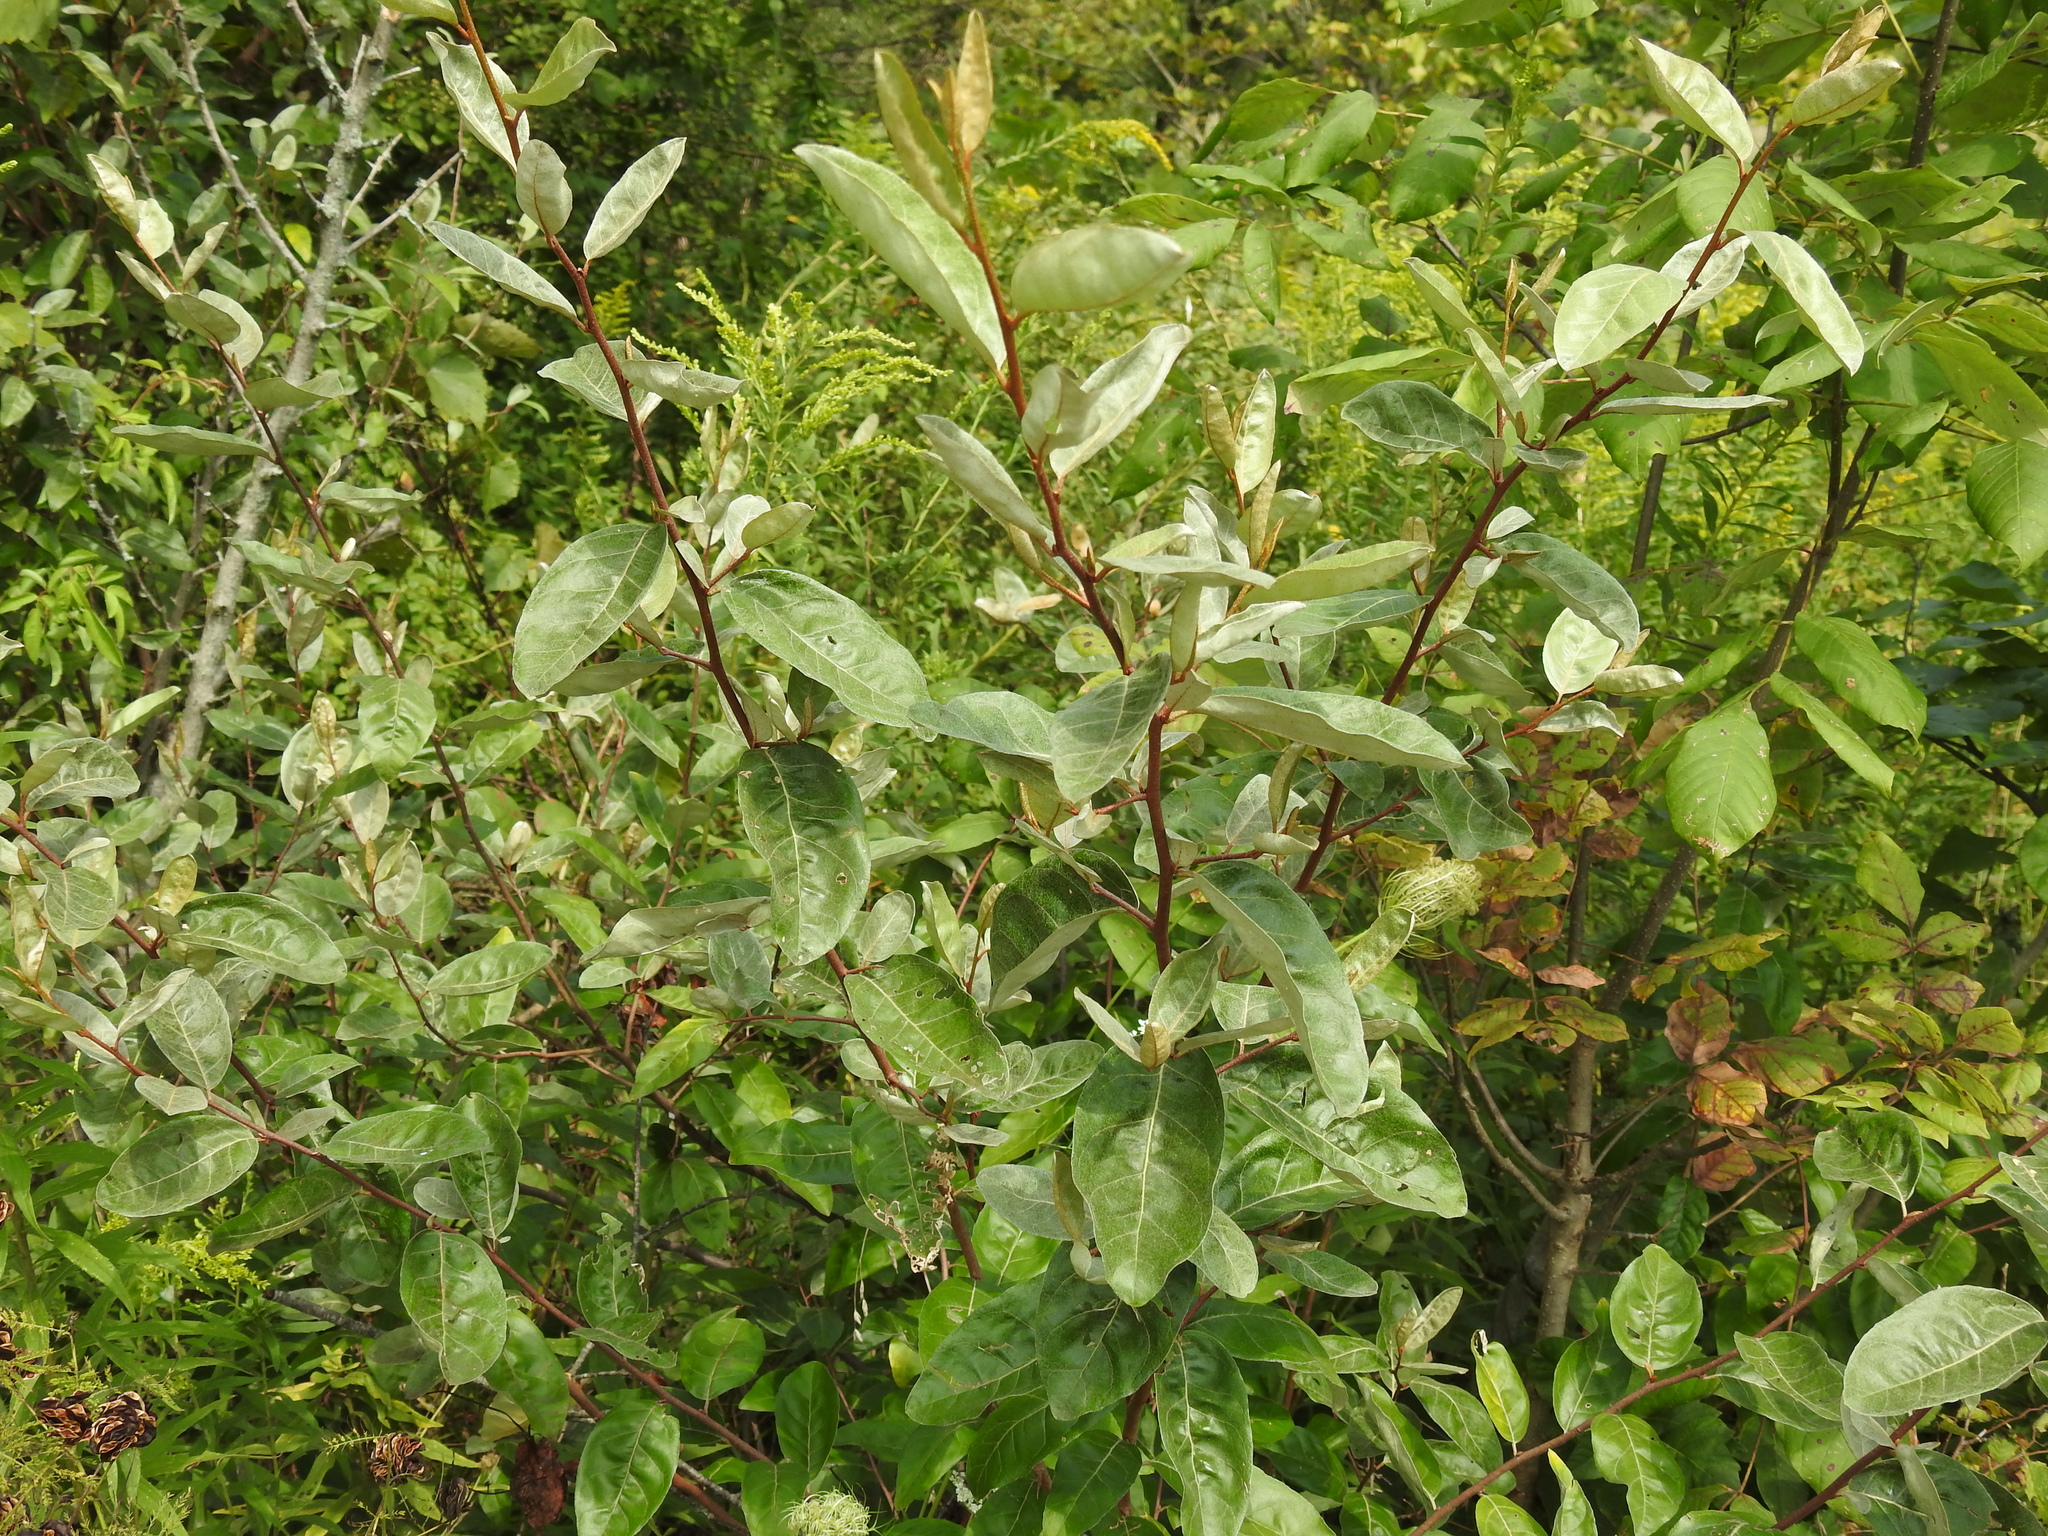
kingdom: Plantae
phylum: Tracheophyta
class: Magnoliopsida
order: Rosales
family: Elaeagnaceae
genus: Elaeagnus
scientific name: Elaeagnus umbellata
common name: Autumn olive
